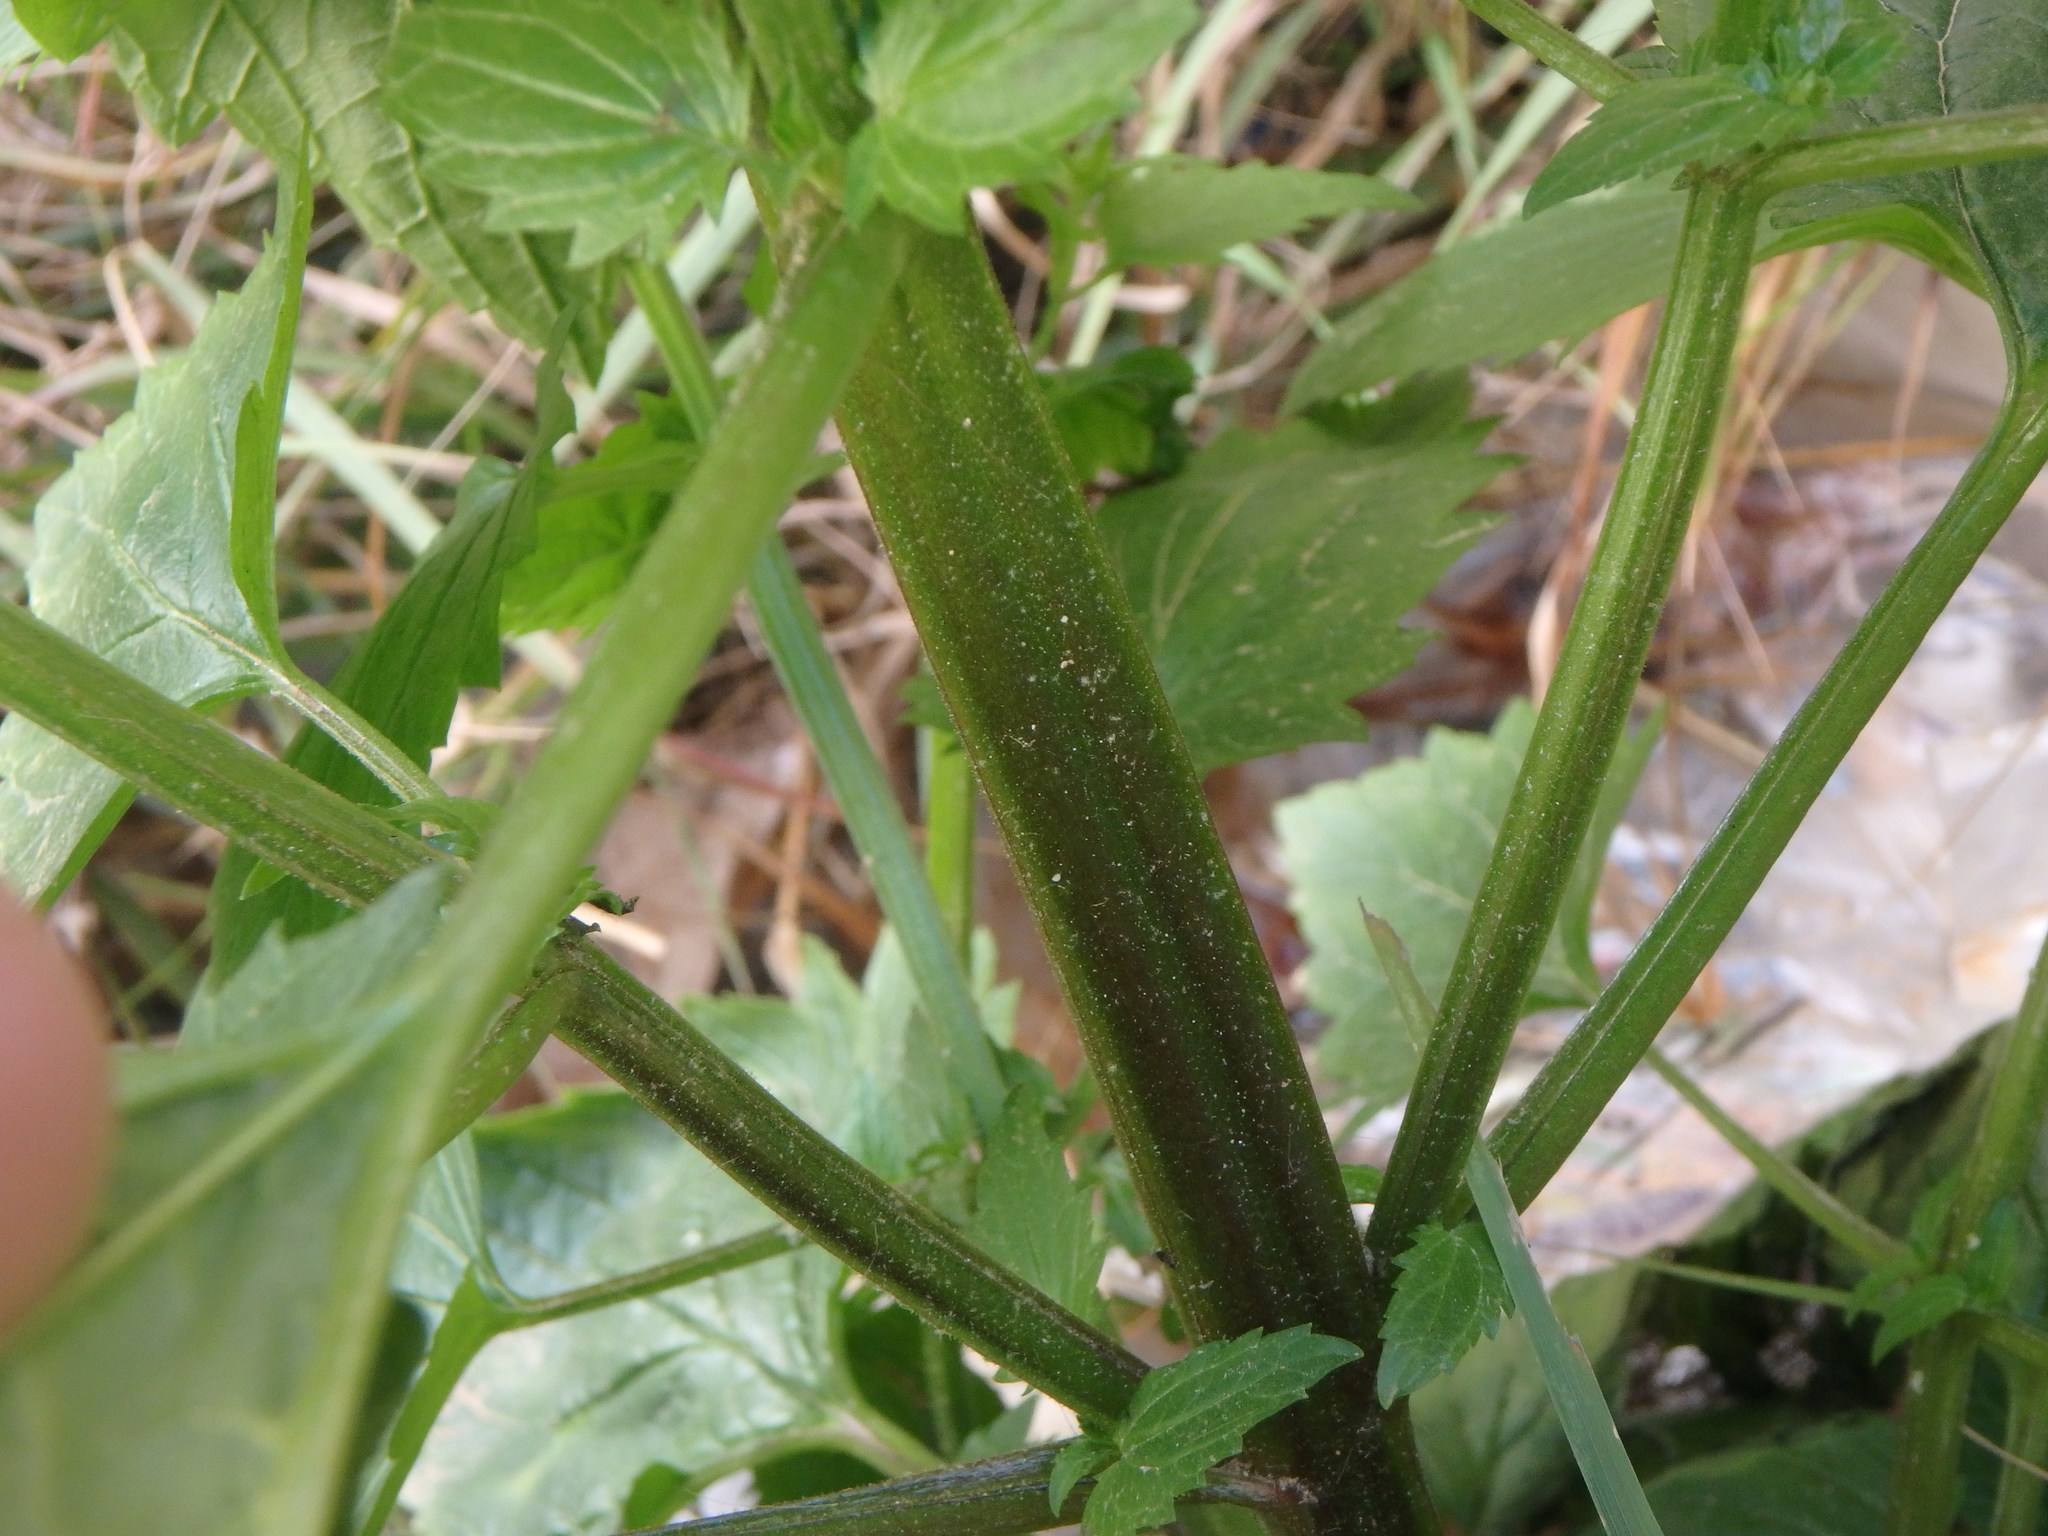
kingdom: Plantae
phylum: Tracheophyta
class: Magnoliopsida
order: Lamiales
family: Scrophulariaceae
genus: Scrophularia
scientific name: Scrophularia peregrina
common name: Mediterranean figwort
